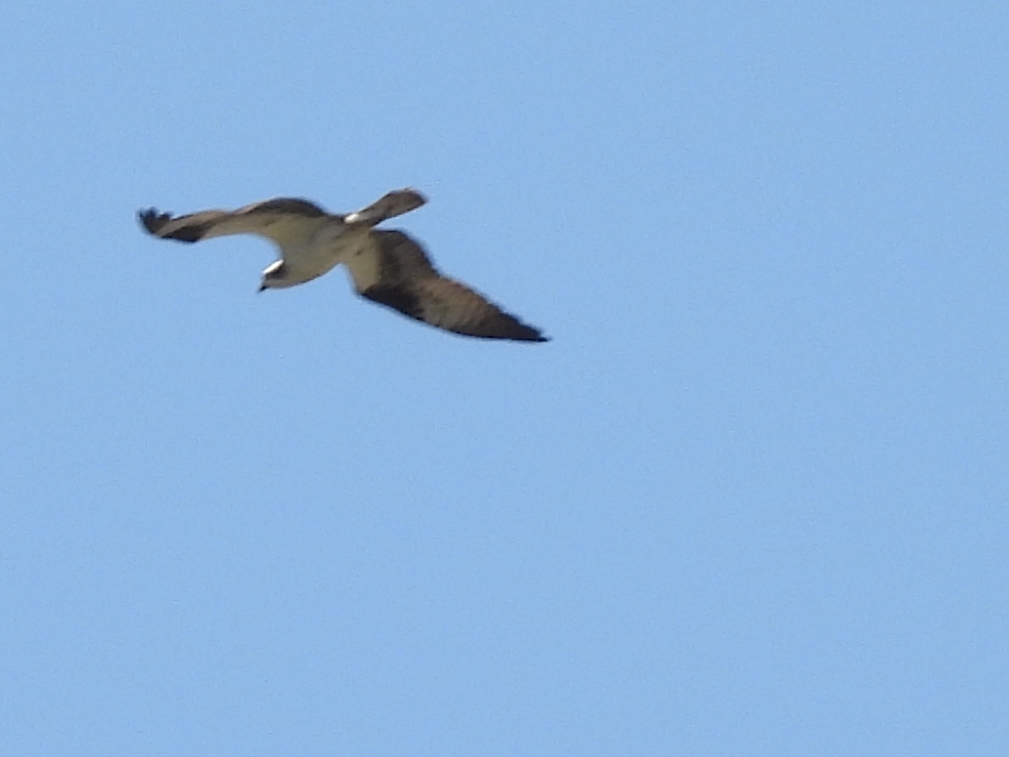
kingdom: Animalia
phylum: Chordata
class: Aves
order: Accipitriformes
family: Pandionidae
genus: Pandion
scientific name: Pandion haliaetus
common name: Osprey
